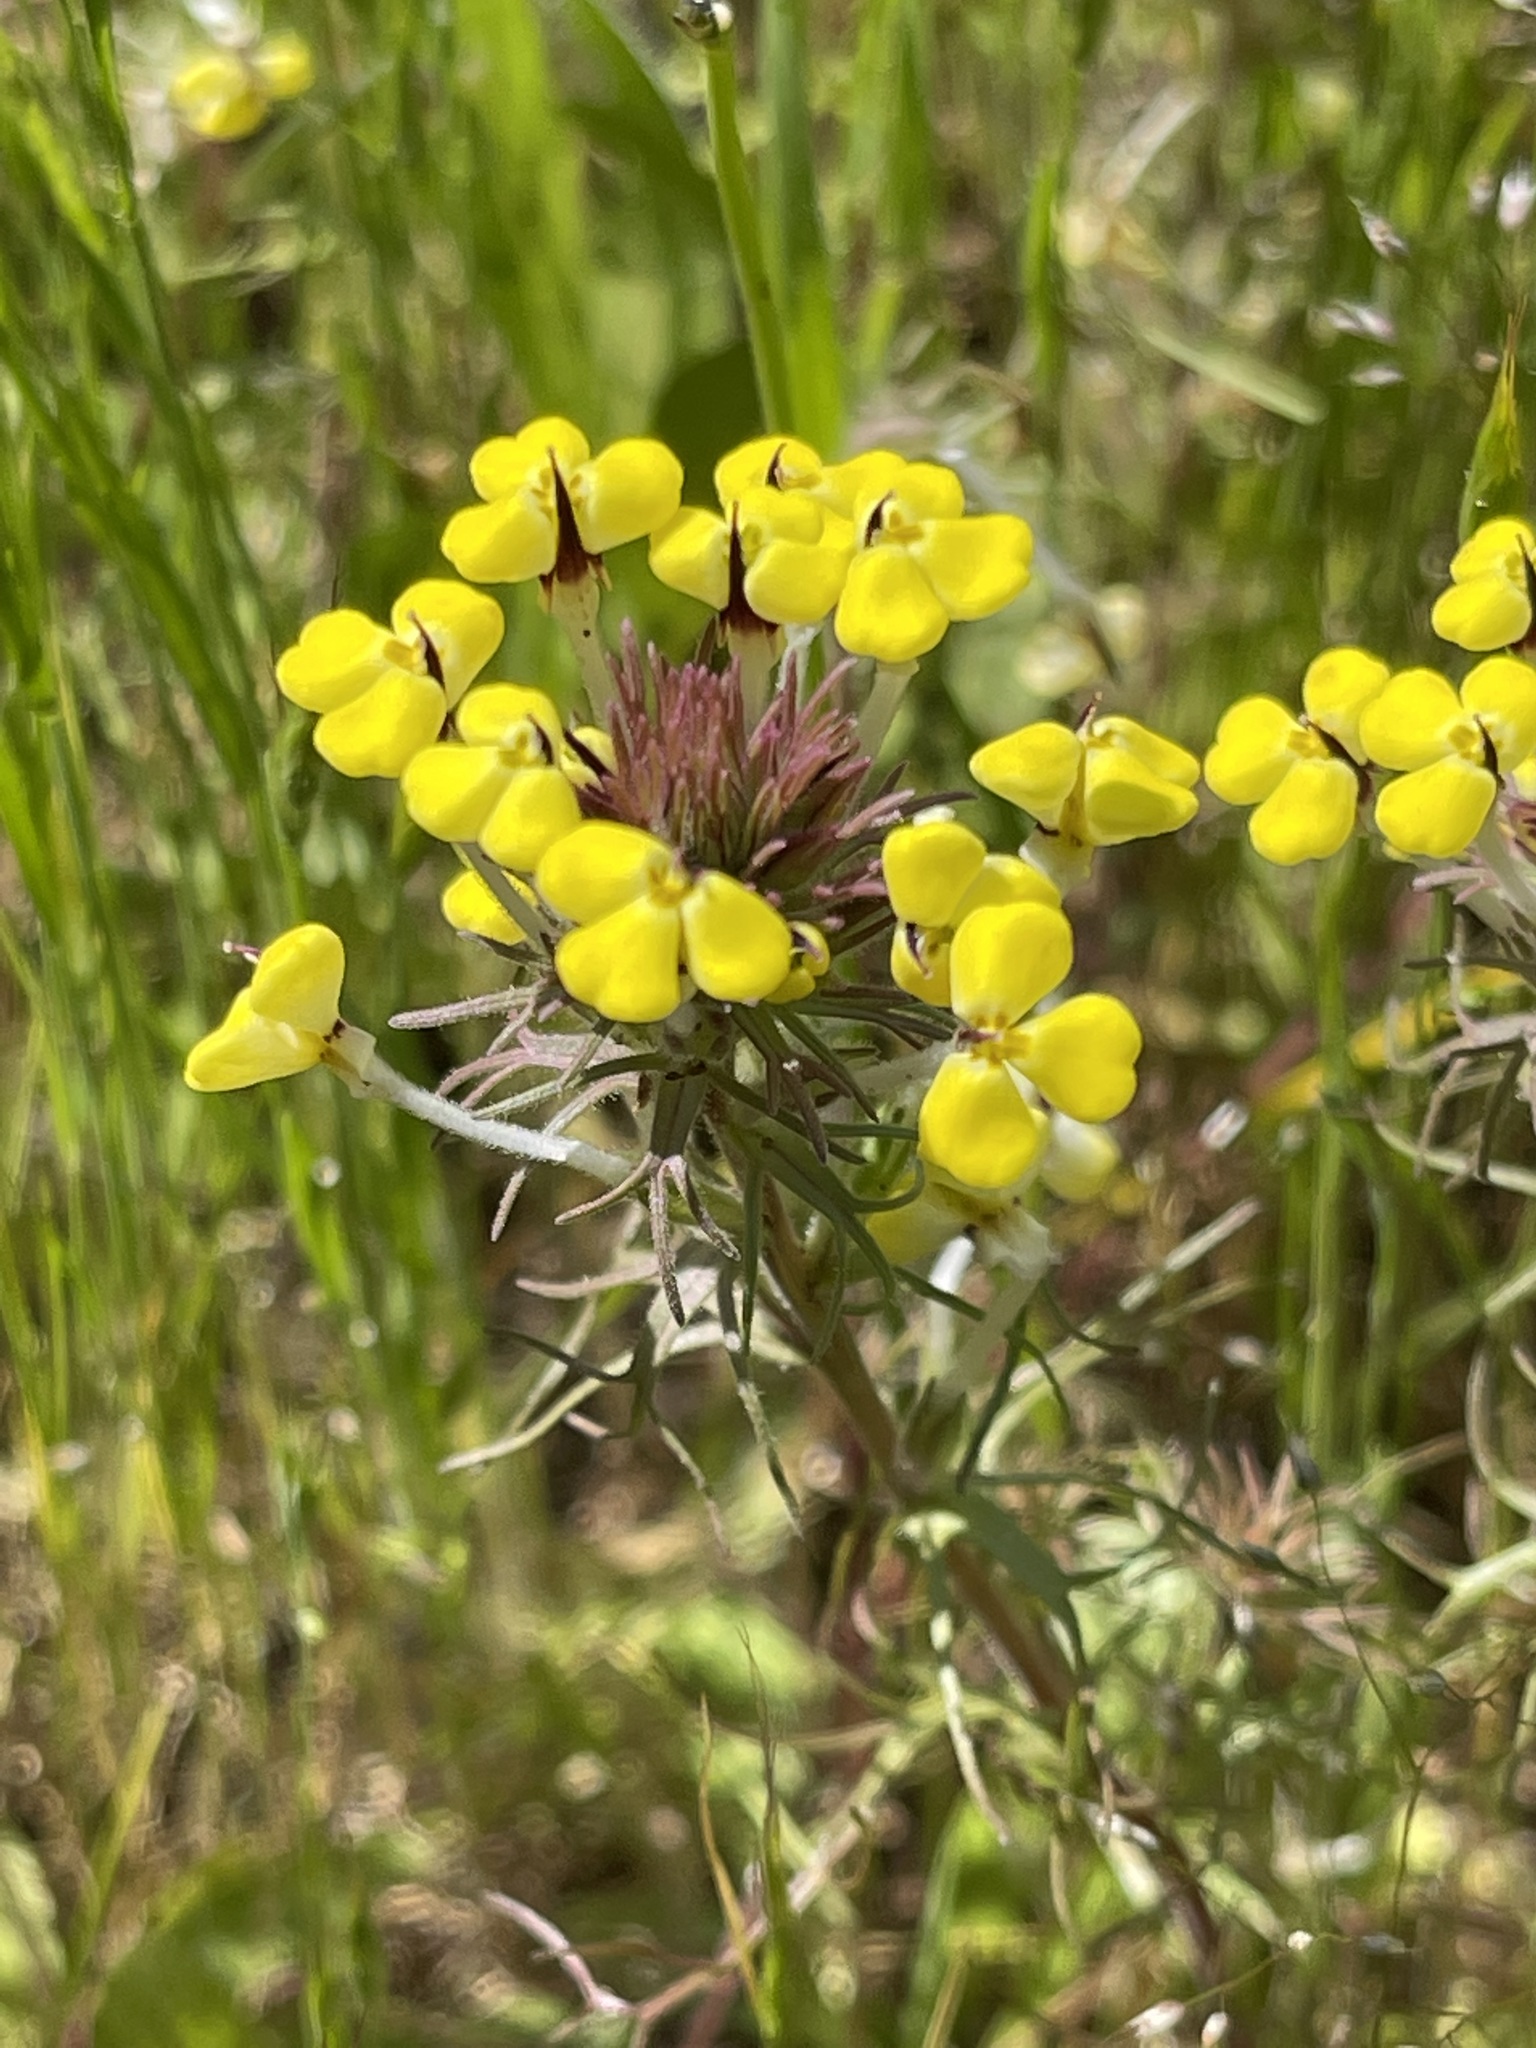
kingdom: Plantae
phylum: Tracheophyta
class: Magnoliopsida
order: Lamiales
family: Orobanchaceae
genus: Triphysaria
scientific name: Triphysaria eriantha
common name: Johnny-tuck
